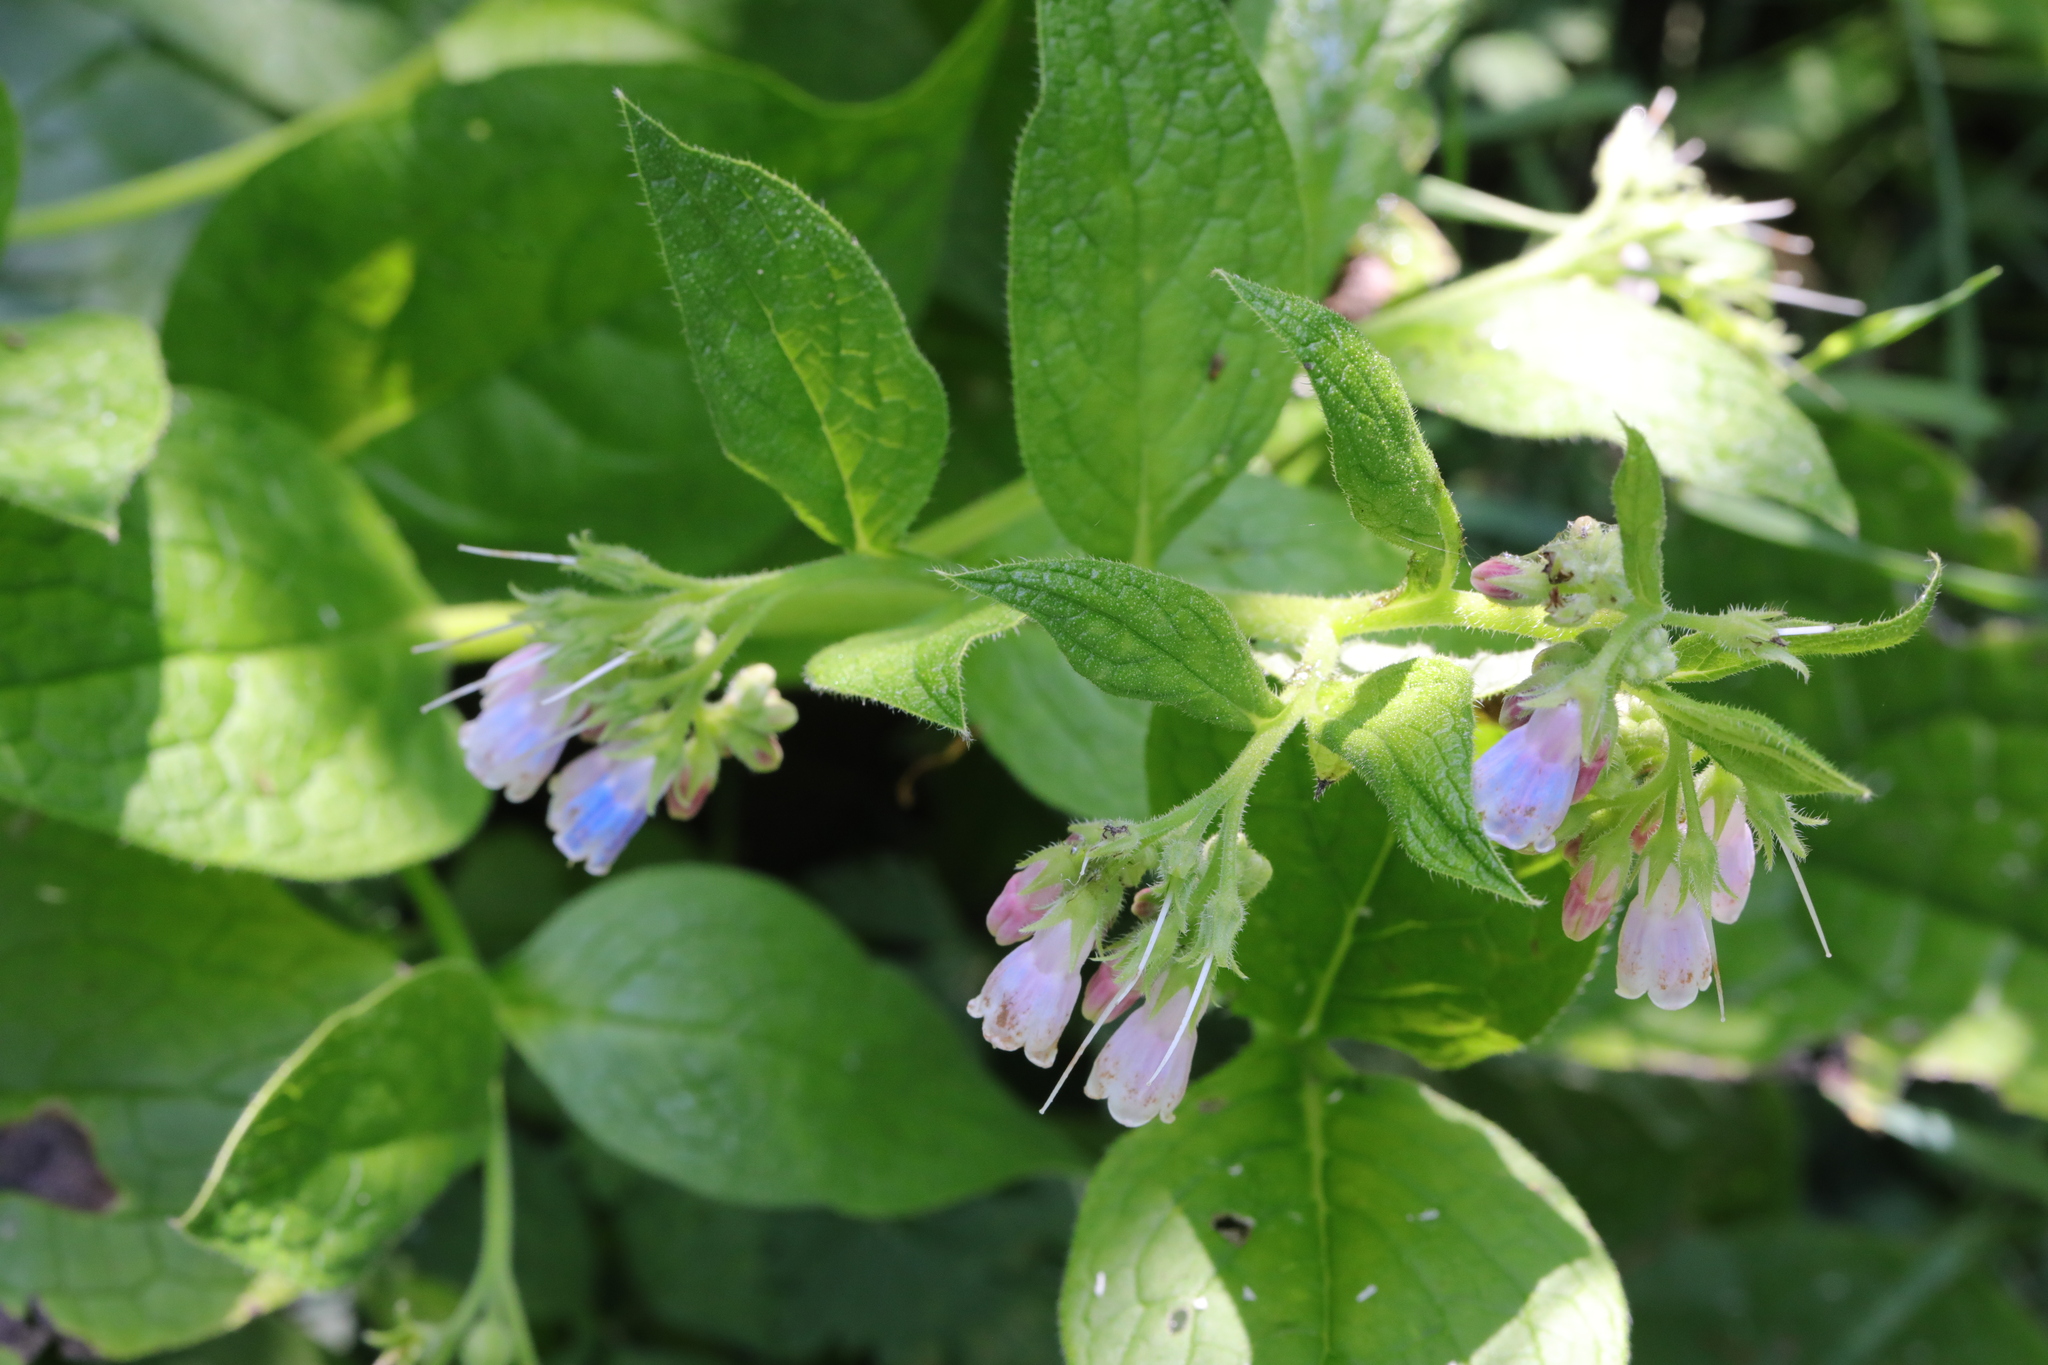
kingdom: Plantae
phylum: Tracheophyta
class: Magnoliopsida
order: Boraginales
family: Boraginaceae
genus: Symphytum
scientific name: Symphytum uplandicum
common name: Russian comfrey
